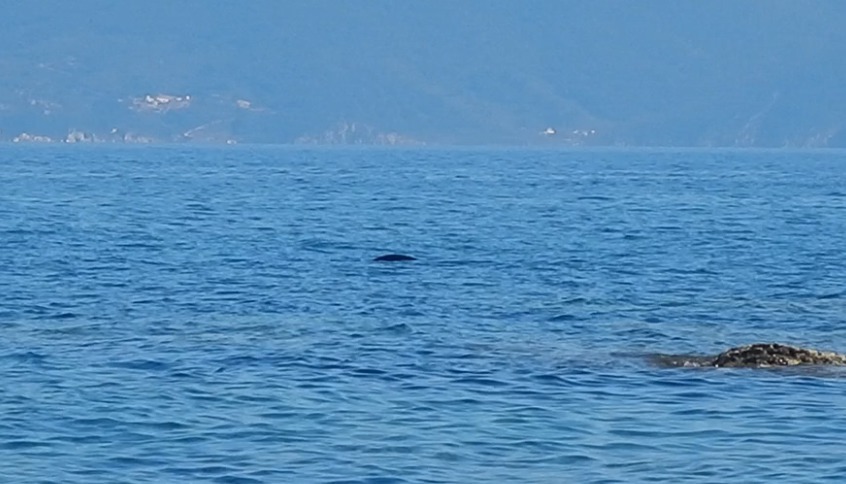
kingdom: Animalia
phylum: Chordata
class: Mammalia
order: Carnivora
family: Phocidae
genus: Monachus
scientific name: Monachus monachus
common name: Mediterranean monk seal
